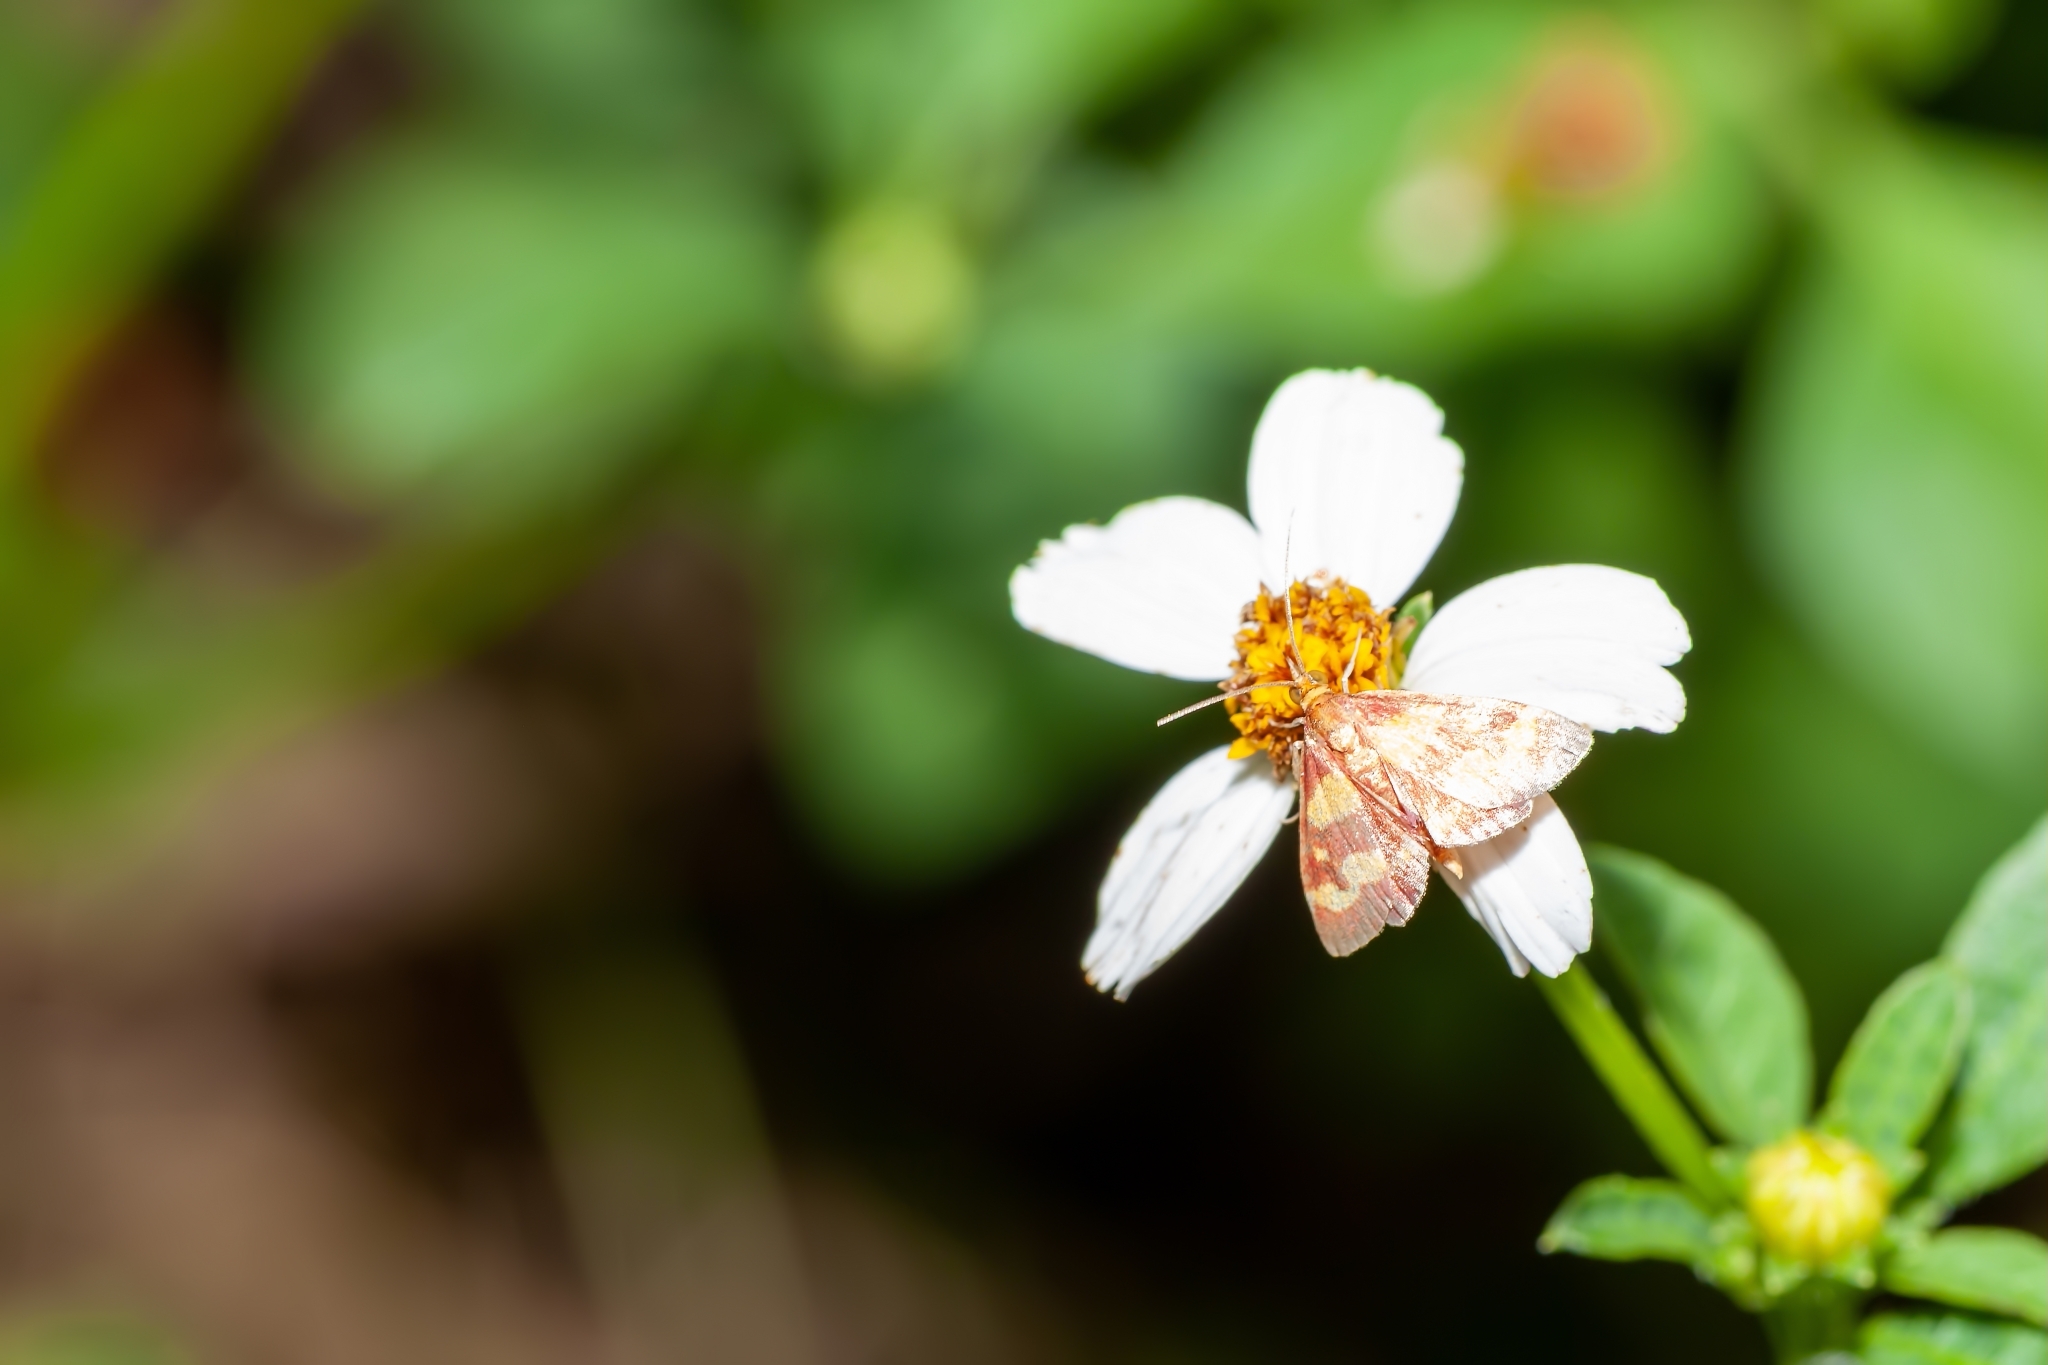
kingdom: Animalia
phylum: Arthropoda
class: Insecta
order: Lepidoptera
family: Crambidae
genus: Pyrausta
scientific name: Pyrausta tyralis
